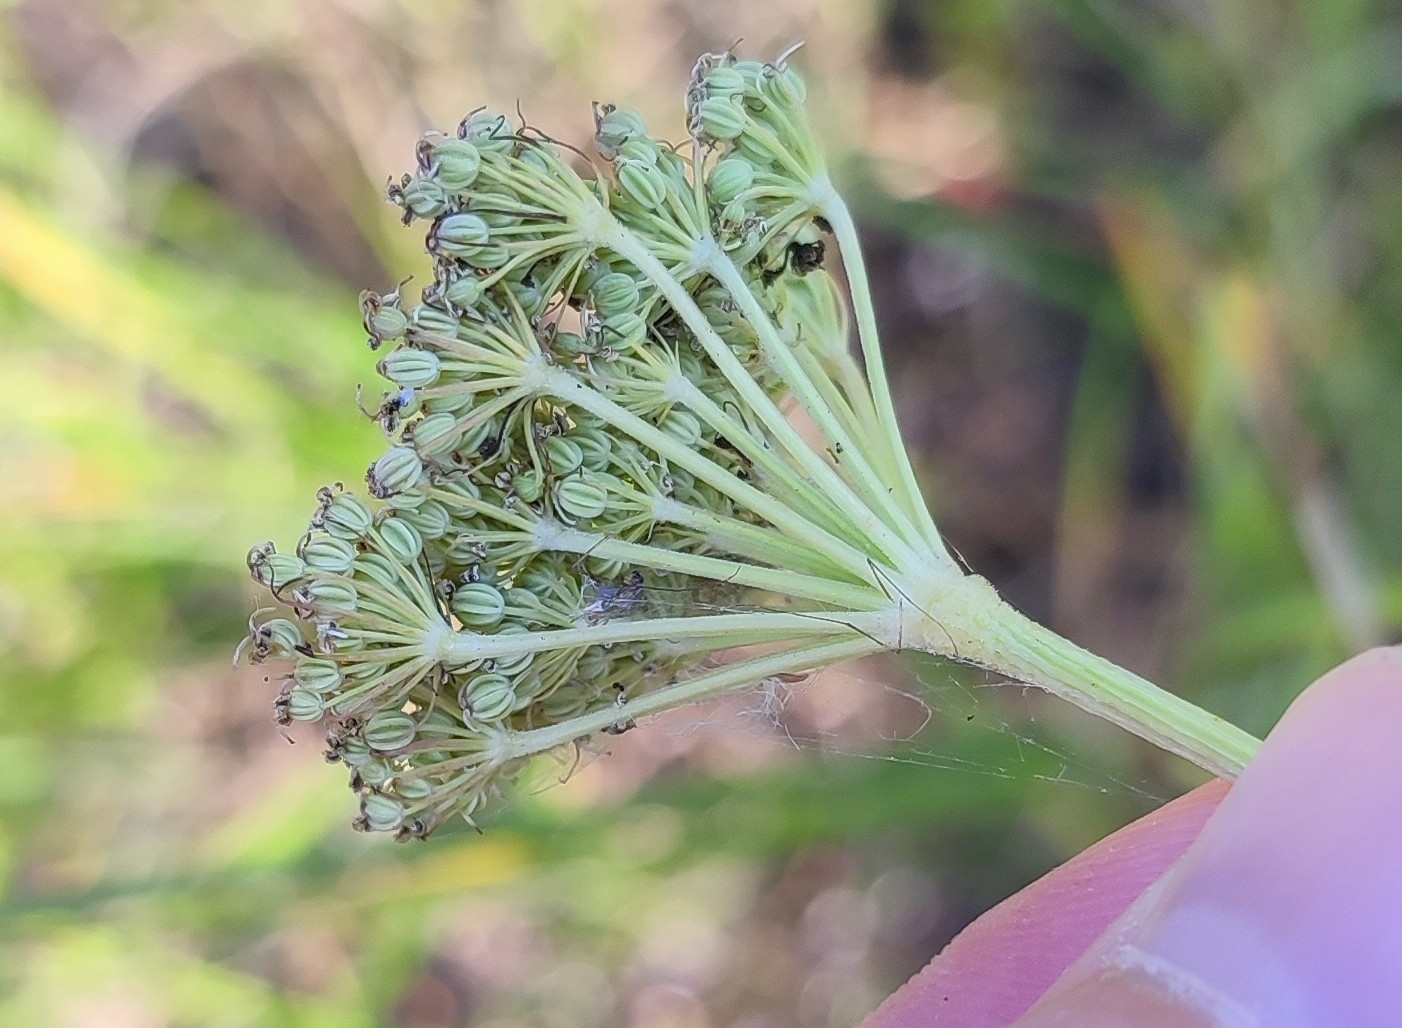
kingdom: Plantae
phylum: Tracheophyta
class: Magnoliopsida
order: Apiales
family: Apiaceae
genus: Kadenia
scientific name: Kadenia dubia
